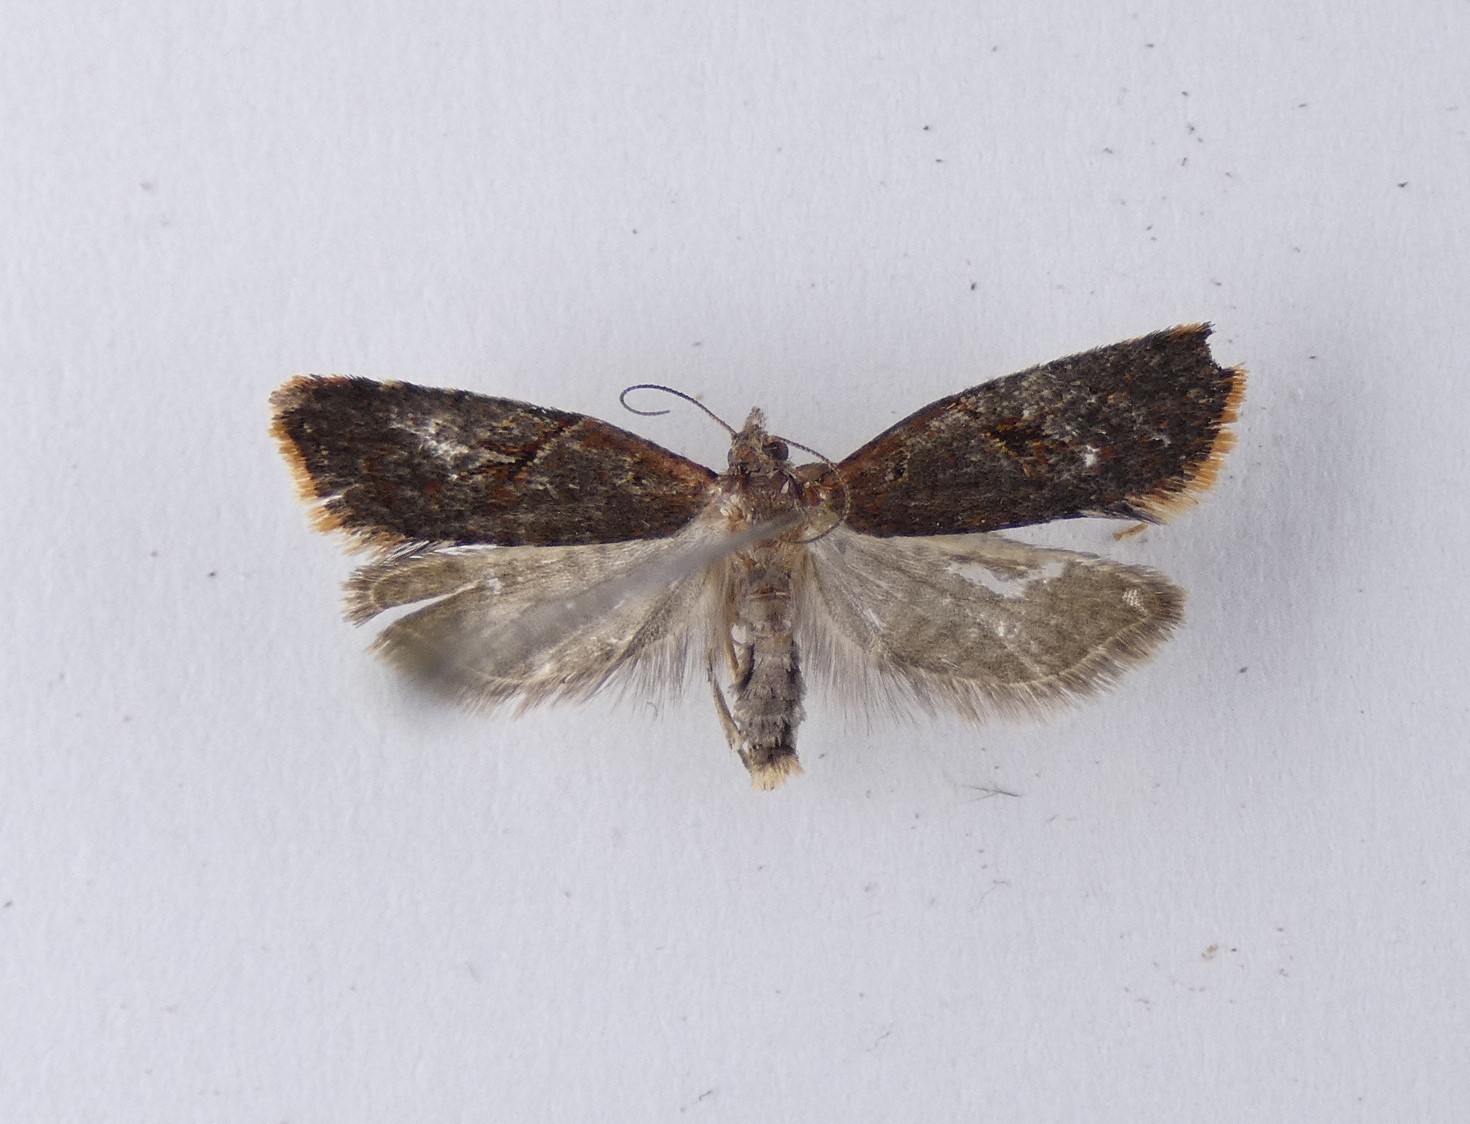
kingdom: Animalia
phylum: Arthropoda
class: Insecta
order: Lepidoptera
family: Tortricidae
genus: Capua
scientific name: Capua semiferana
